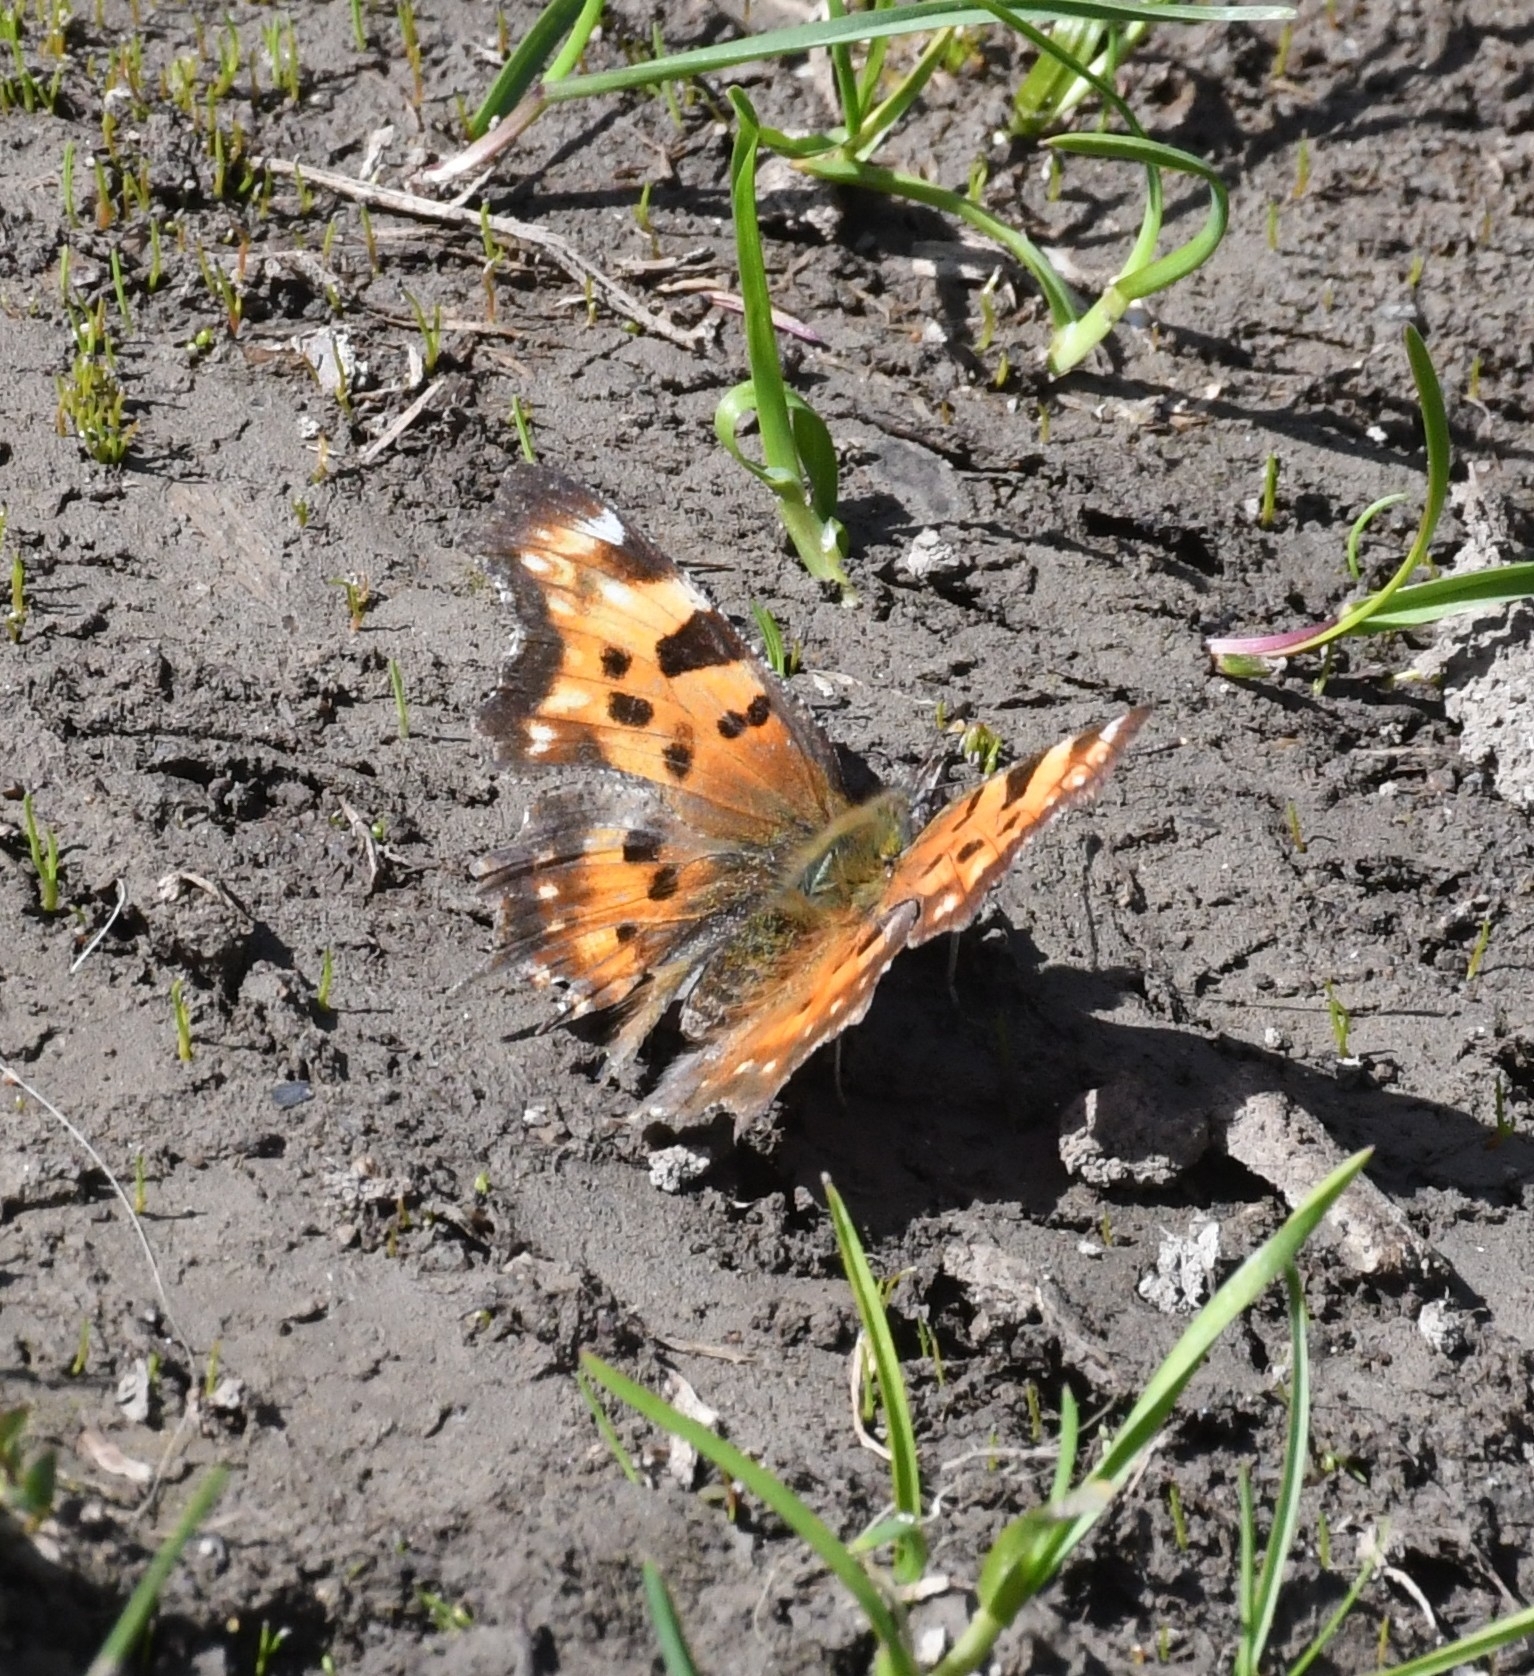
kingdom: Animalia
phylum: Arthropoda
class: Insecta
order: Lepidoptera
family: Nymphalidae
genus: Polygonia
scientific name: Polygonia faunus
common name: Green comma
